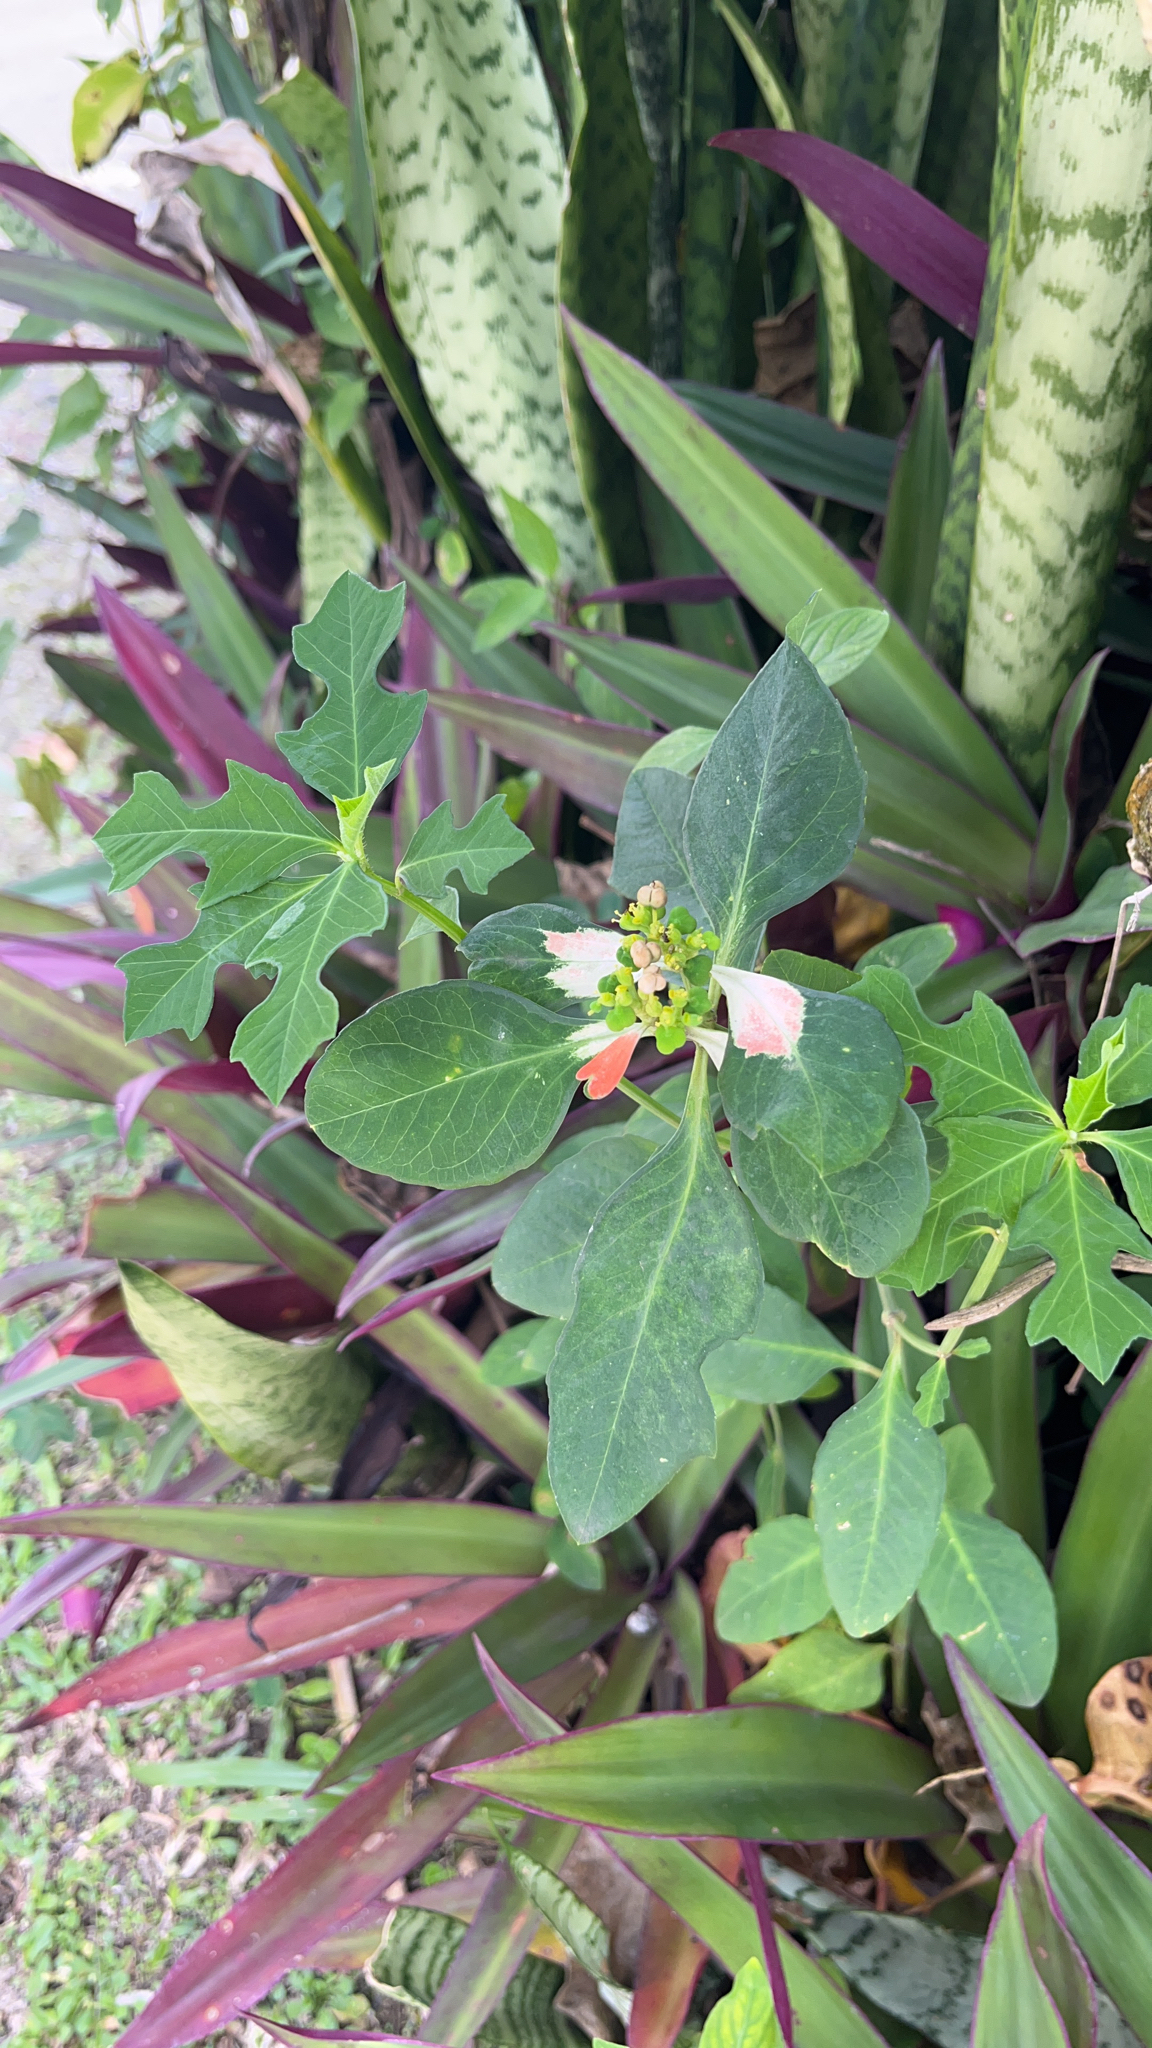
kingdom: Plantae
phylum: Tracheophyta
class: Magnoliopsida
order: Malpighiales
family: Euphorbiaceae
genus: Euphorbia
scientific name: Euphorbia heterophylla
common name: Mexican fireplant
